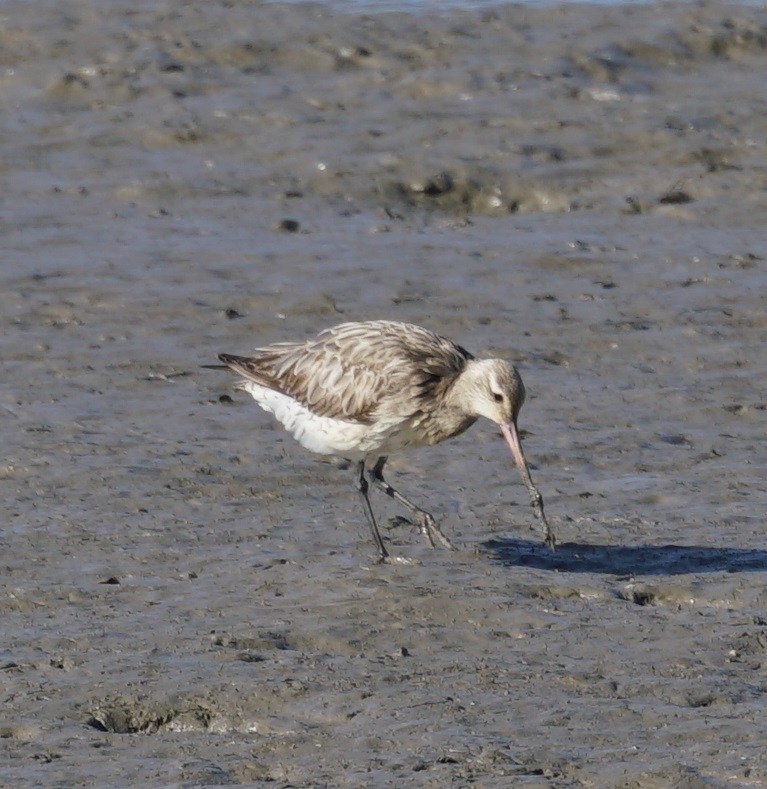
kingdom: Animalia
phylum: Chordata
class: Aves
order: Charadriiformes
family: Scolopacidae
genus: Limosa
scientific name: Limosa lapponica
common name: Bar-tailed godwit
